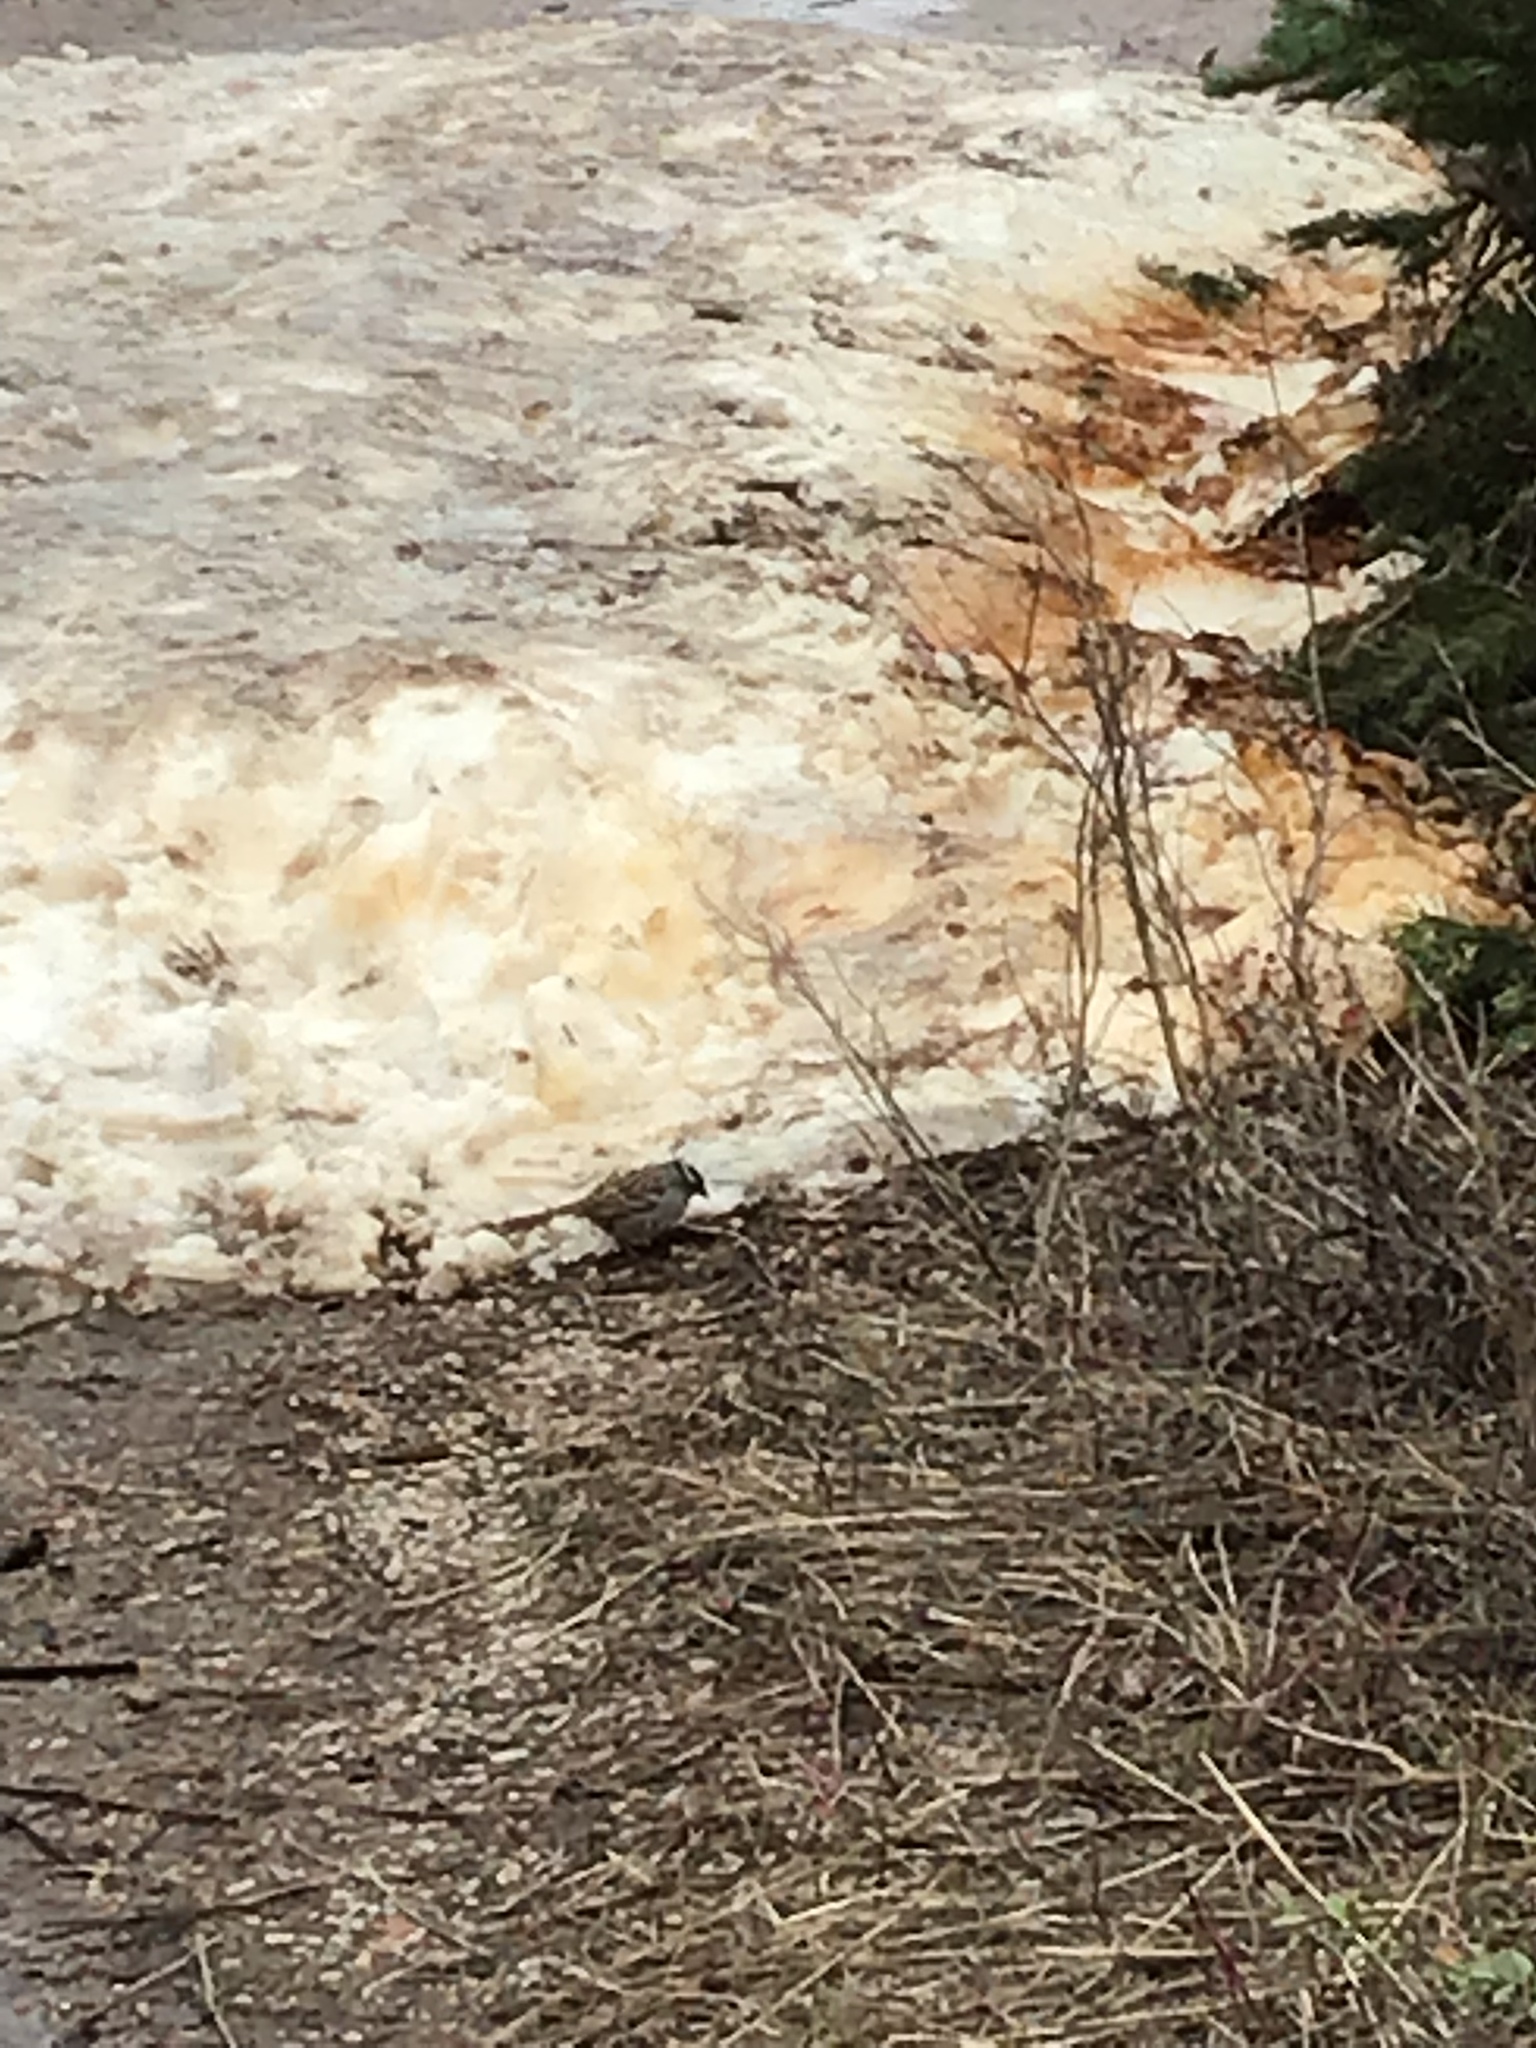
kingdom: Animalia
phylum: Chordata
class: Aves
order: Passeriformes
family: Passerellidae
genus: Zonotrichia
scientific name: Zonotrichia leucophrys
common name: White-crowned sparrow
